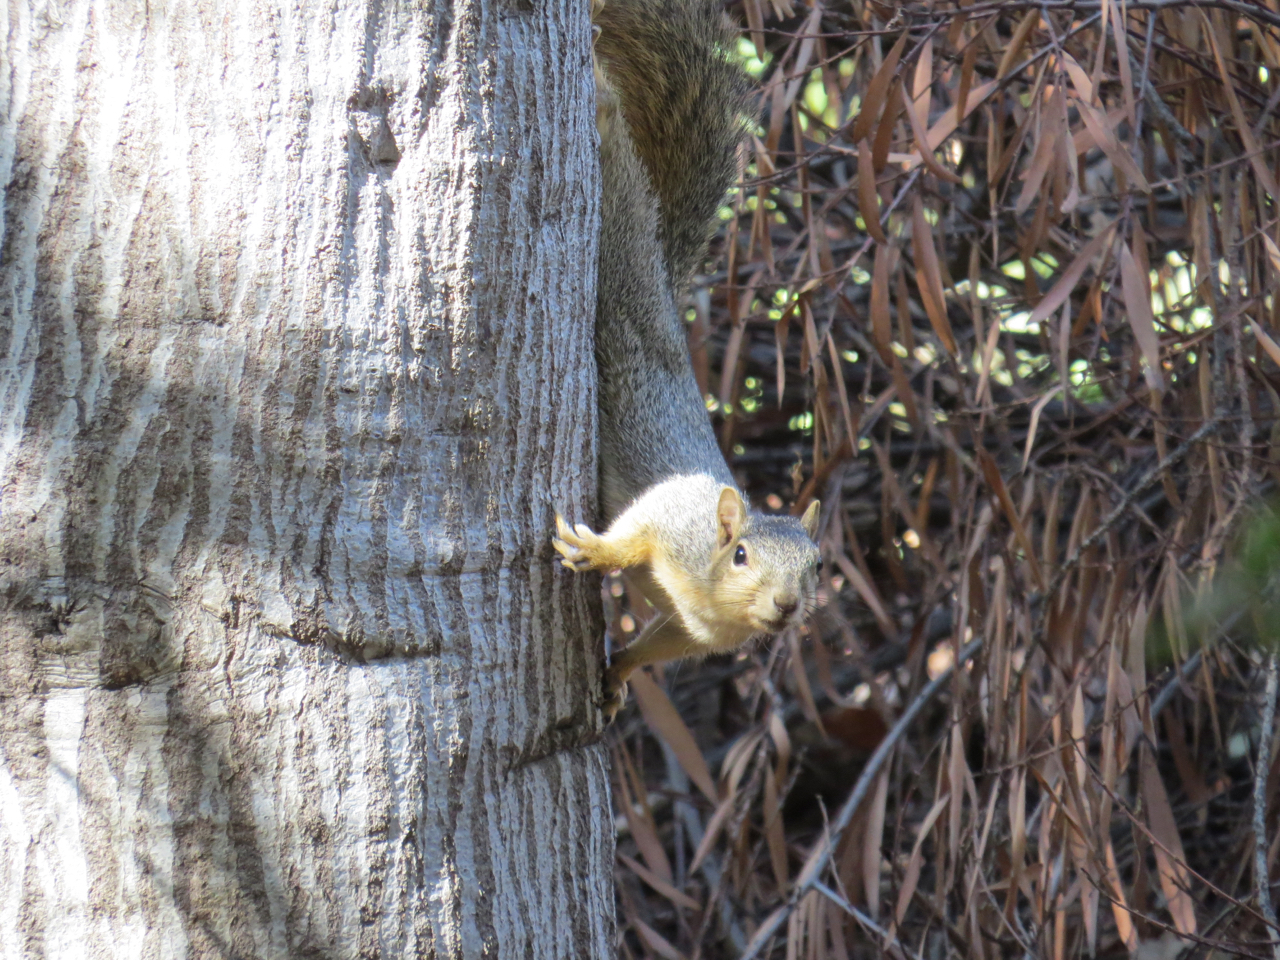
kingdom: Animalia
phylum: Chordata
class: Mammalia
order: Rodentia
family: Sciuridae
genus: Sciurus
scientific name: Sciurus niger
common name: Fox squirrel
